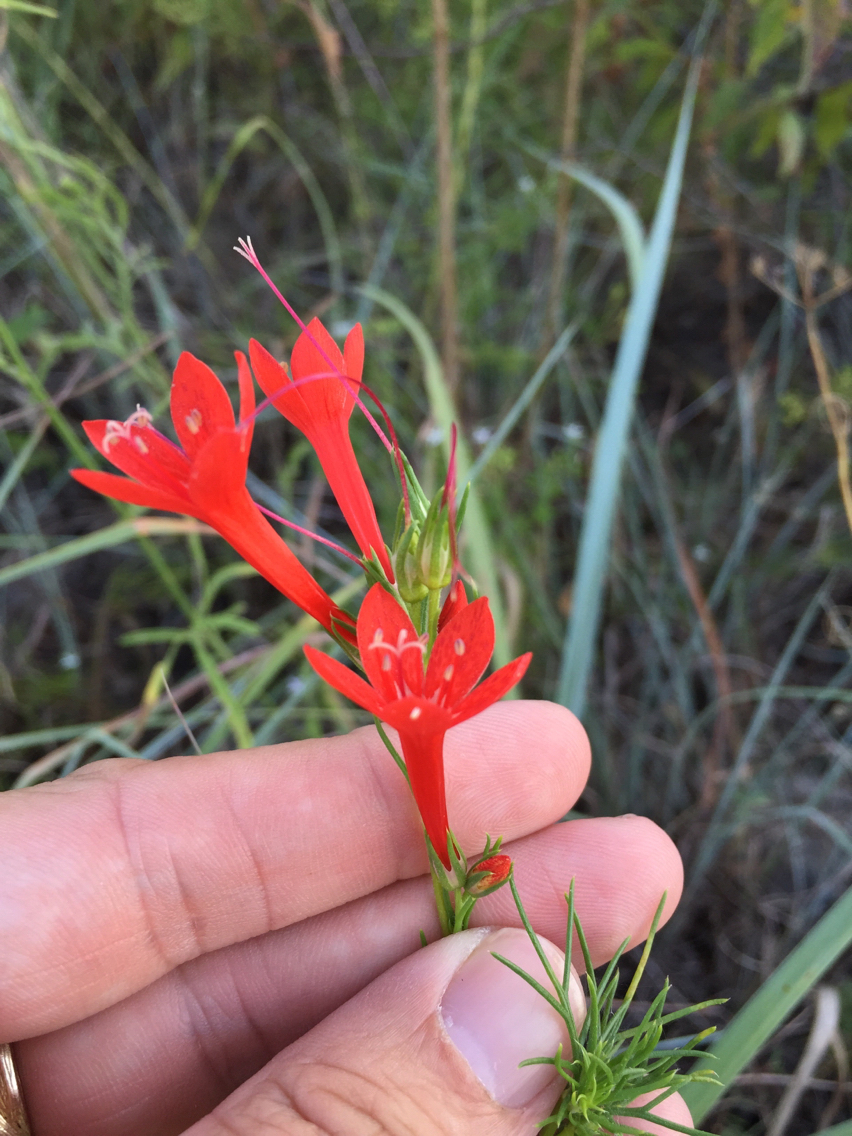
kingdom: Plantae
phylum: Tracheophyta
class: Magnoliopsida
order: Ericales
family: Polemoniaceae
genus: Ipomopsis
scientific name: Ipomopsis rubra
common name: Skyrocket
